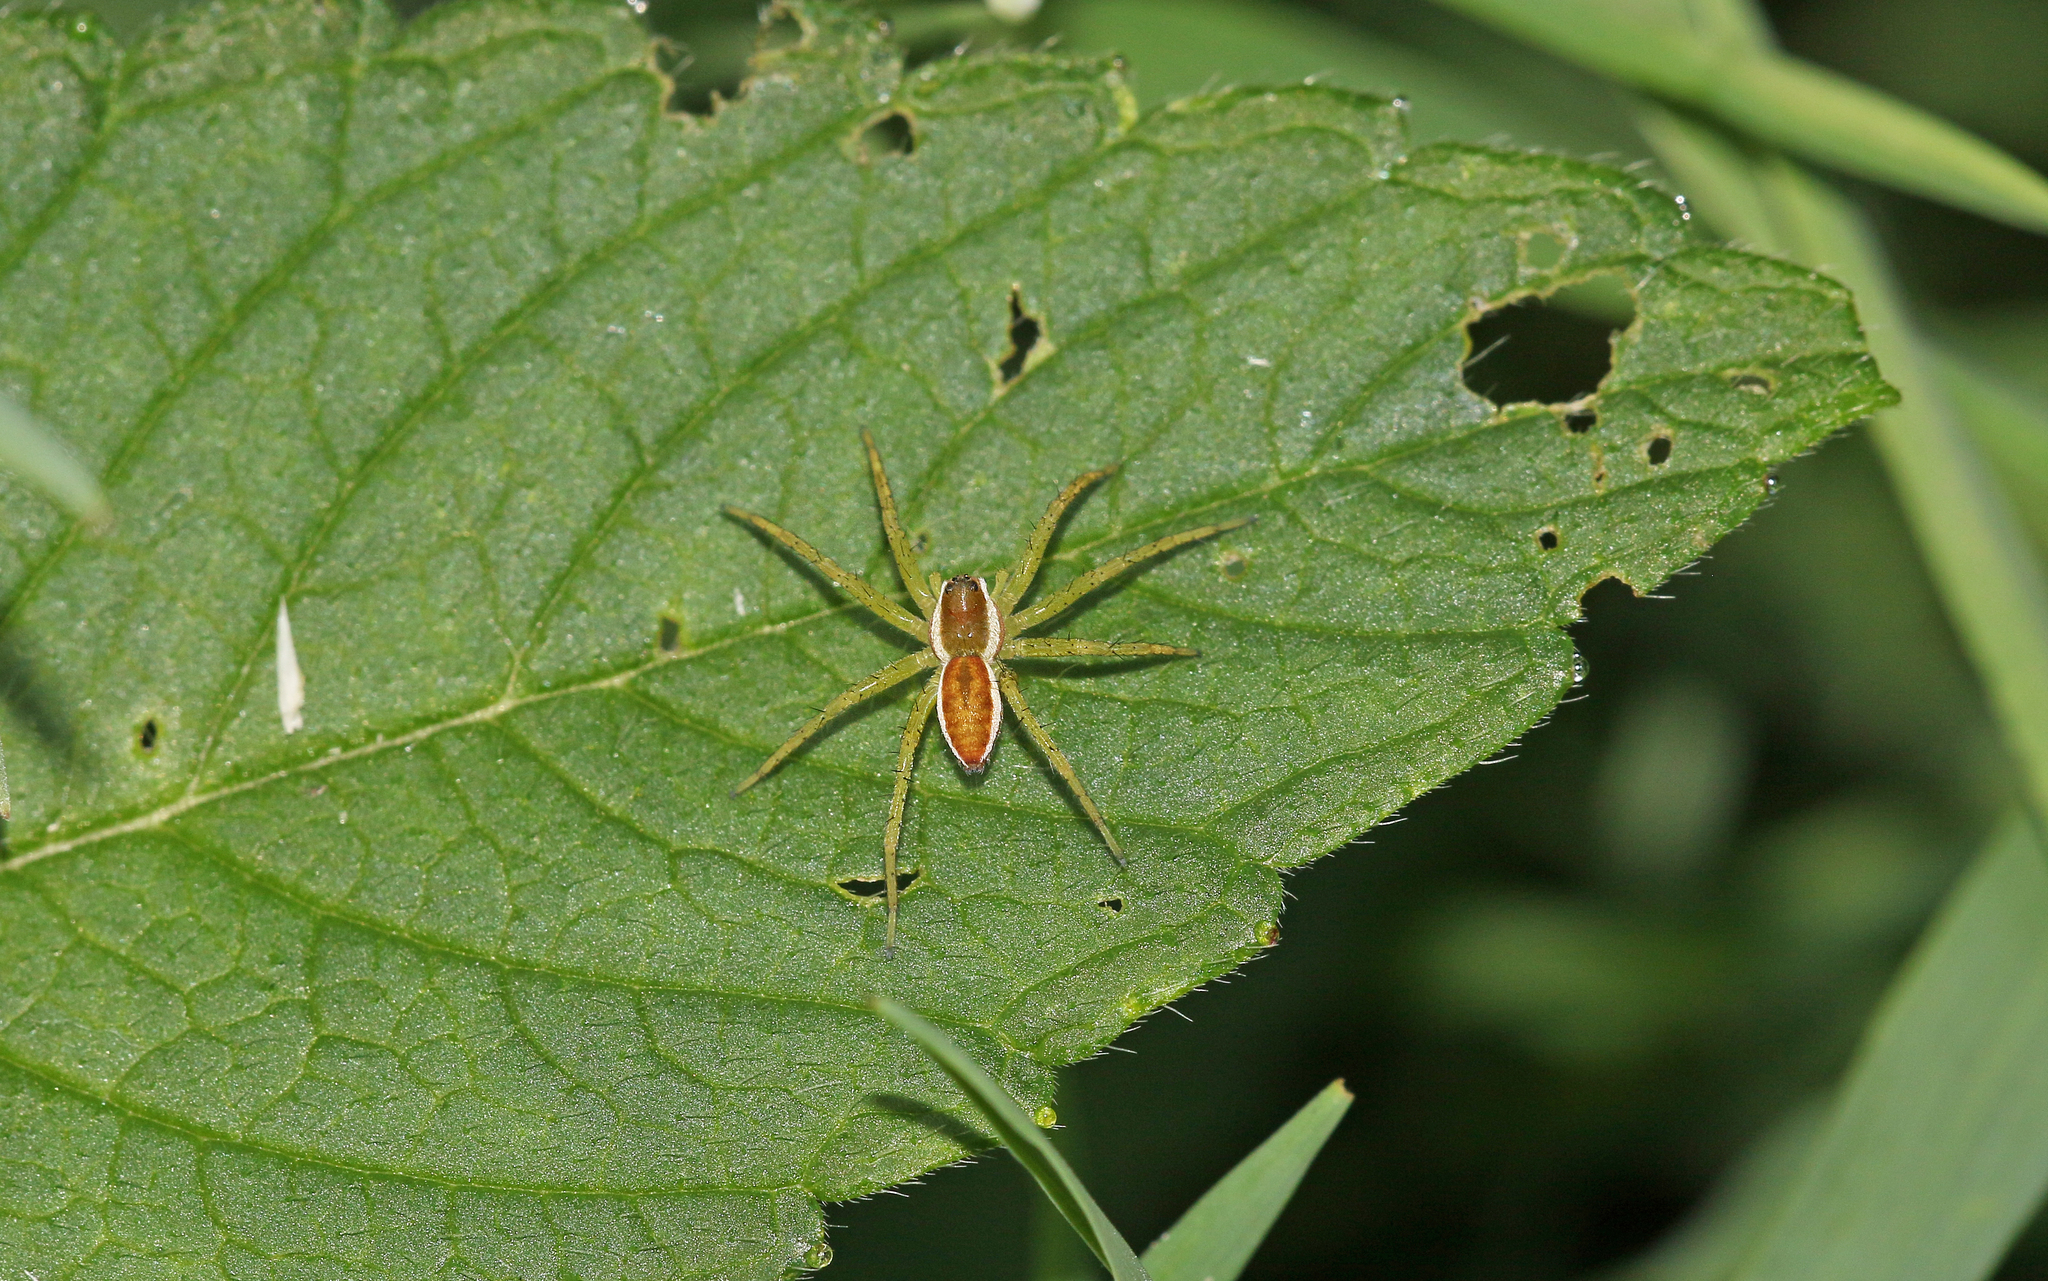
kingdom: Animalia
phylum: Arthropoda
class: Arachnida
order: Araneae
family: Pisauridae
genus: Dolomedes
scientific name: Dolomedes fimbriatus
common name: Raft spider
